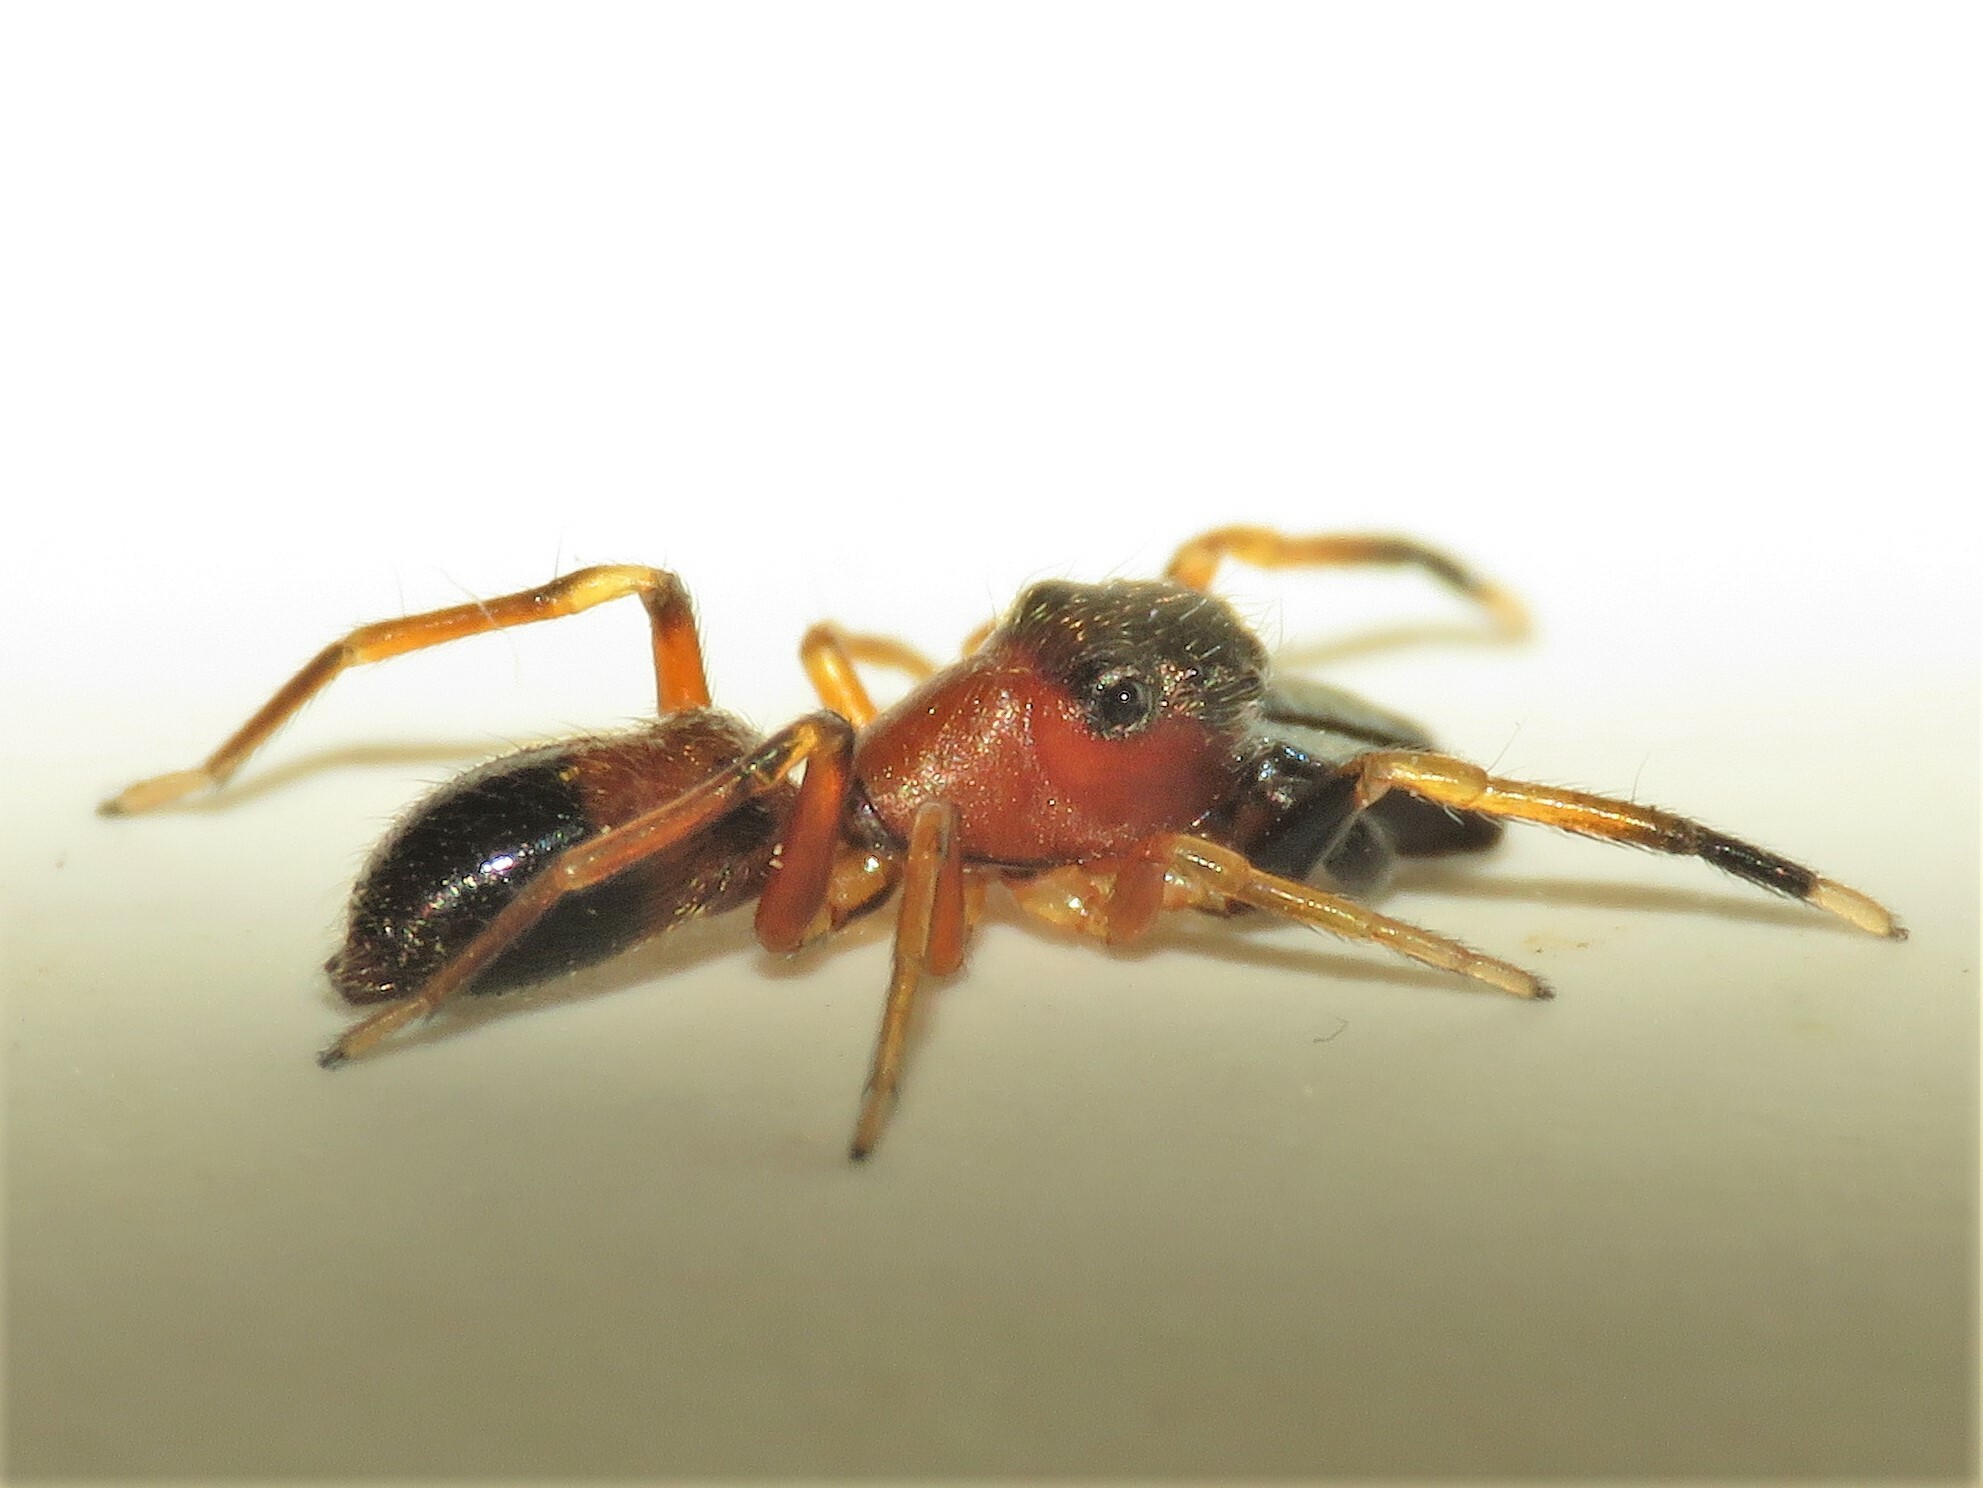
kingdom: Animalia
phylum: Arthropoda
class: Arachnida
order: Araneae
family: Salticidae
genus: Myrmarachne
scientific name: Myrmarachne formicaria
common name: Ant mimic jumping spider
